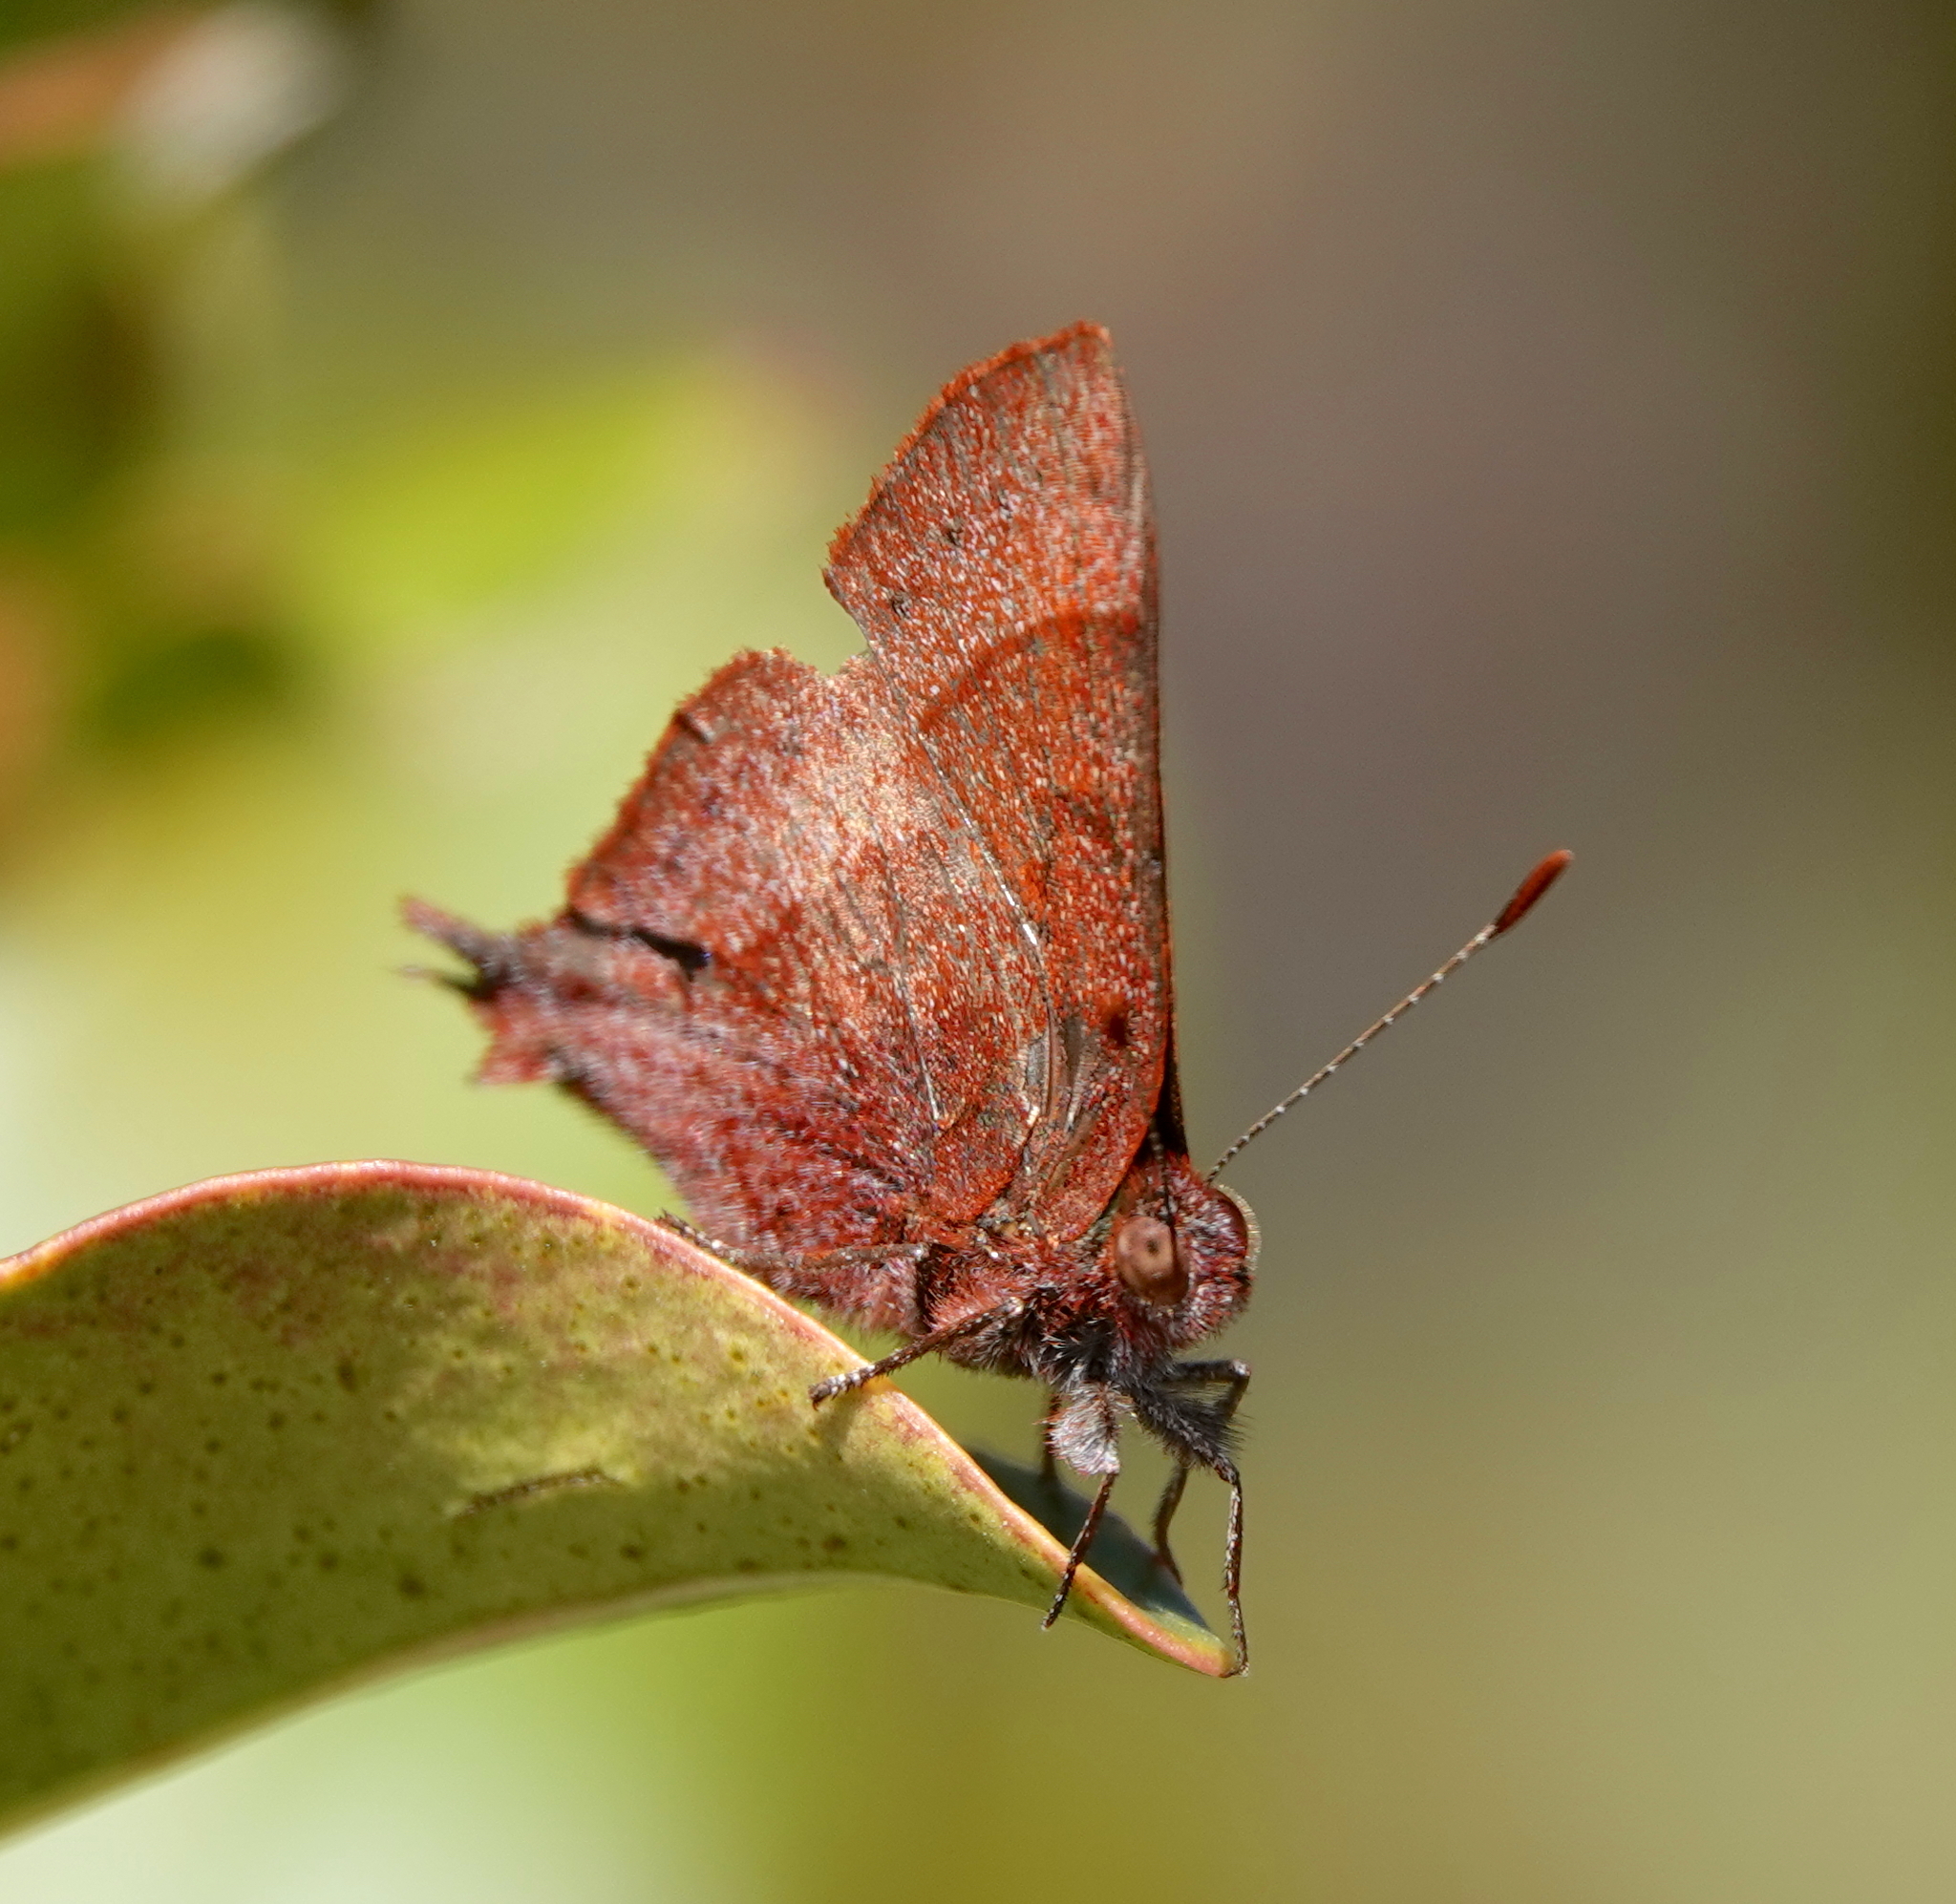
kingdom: Animalia
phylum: Arthropoda
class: Insecta
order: Lepidoptera
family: Lycaenidae
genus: Penaincisalia
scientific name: Penaincisalia loxurina
